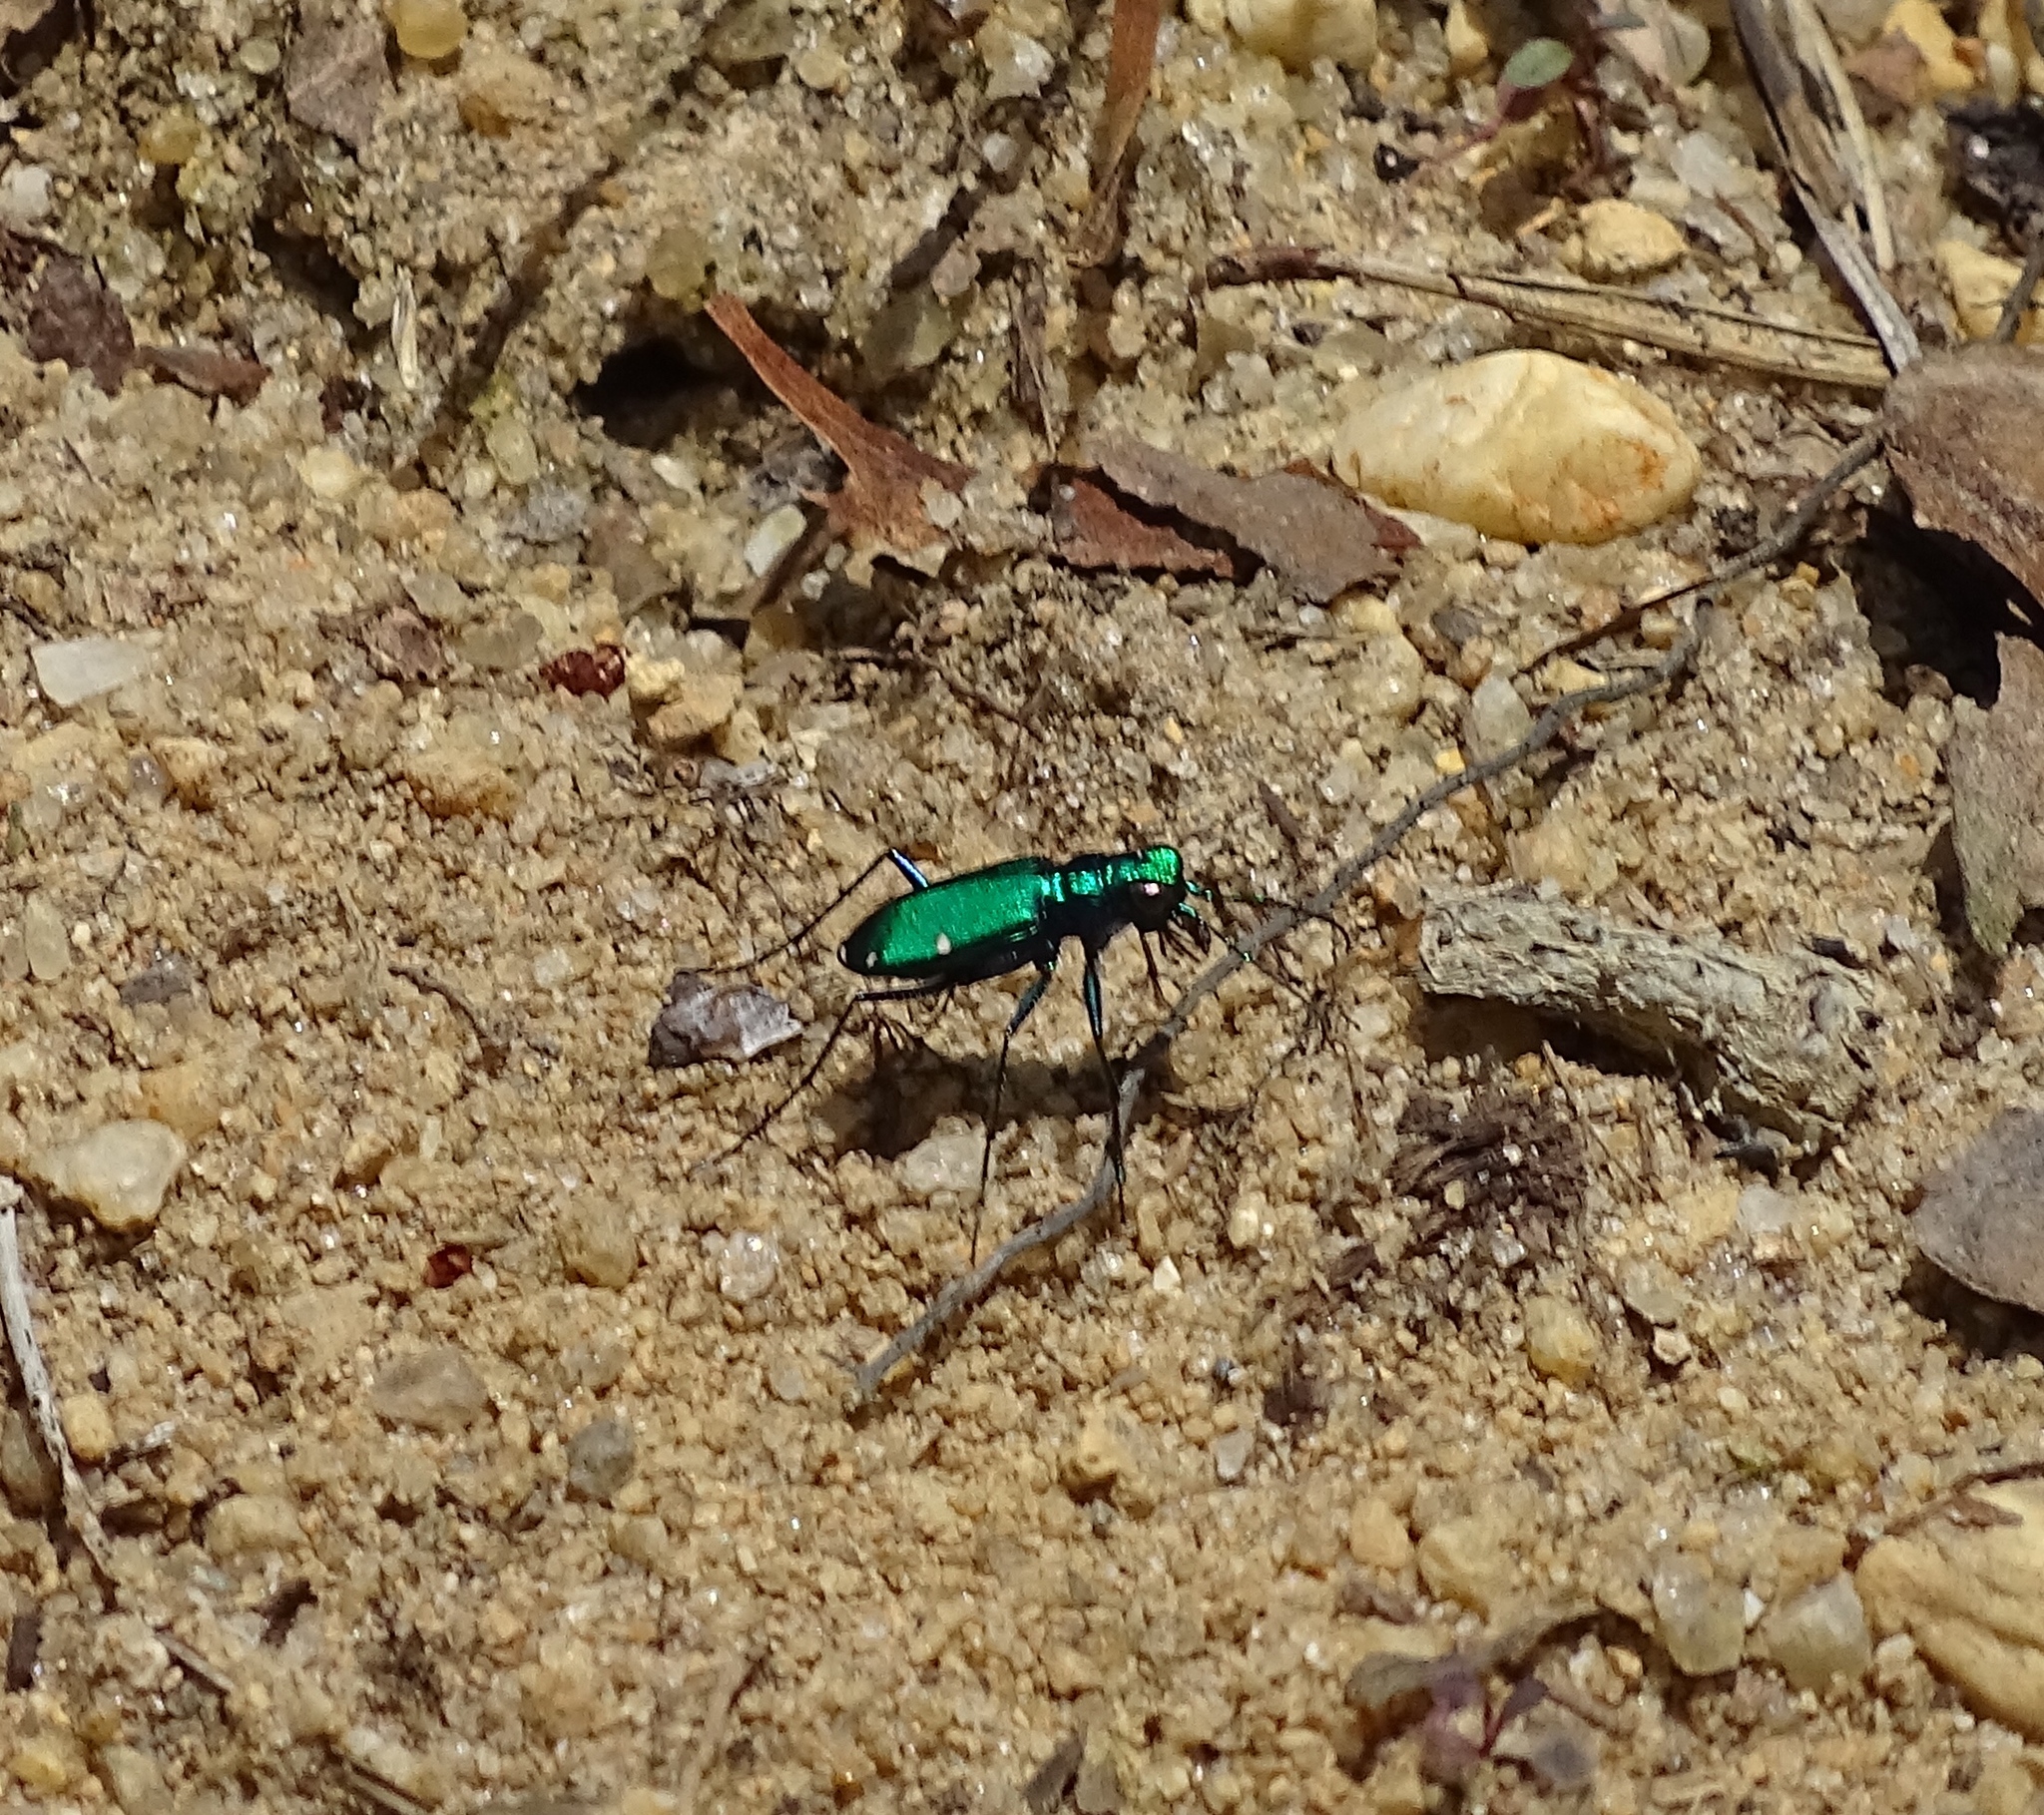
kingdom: Animalia
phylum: Arthropoda
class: Insecta
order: Coleoptera
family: Carabidae
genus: Cicindela
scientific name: Cicindela sexguttata
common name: Six-spotted tiger beetle
